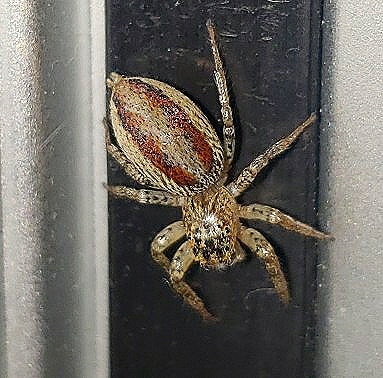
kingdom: Animalia
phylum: Arthropoda
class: Arachnida
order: Araneae
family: Salticidae
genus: Maevia
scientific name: Maevia inclemens
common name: Dimorphic jumper
